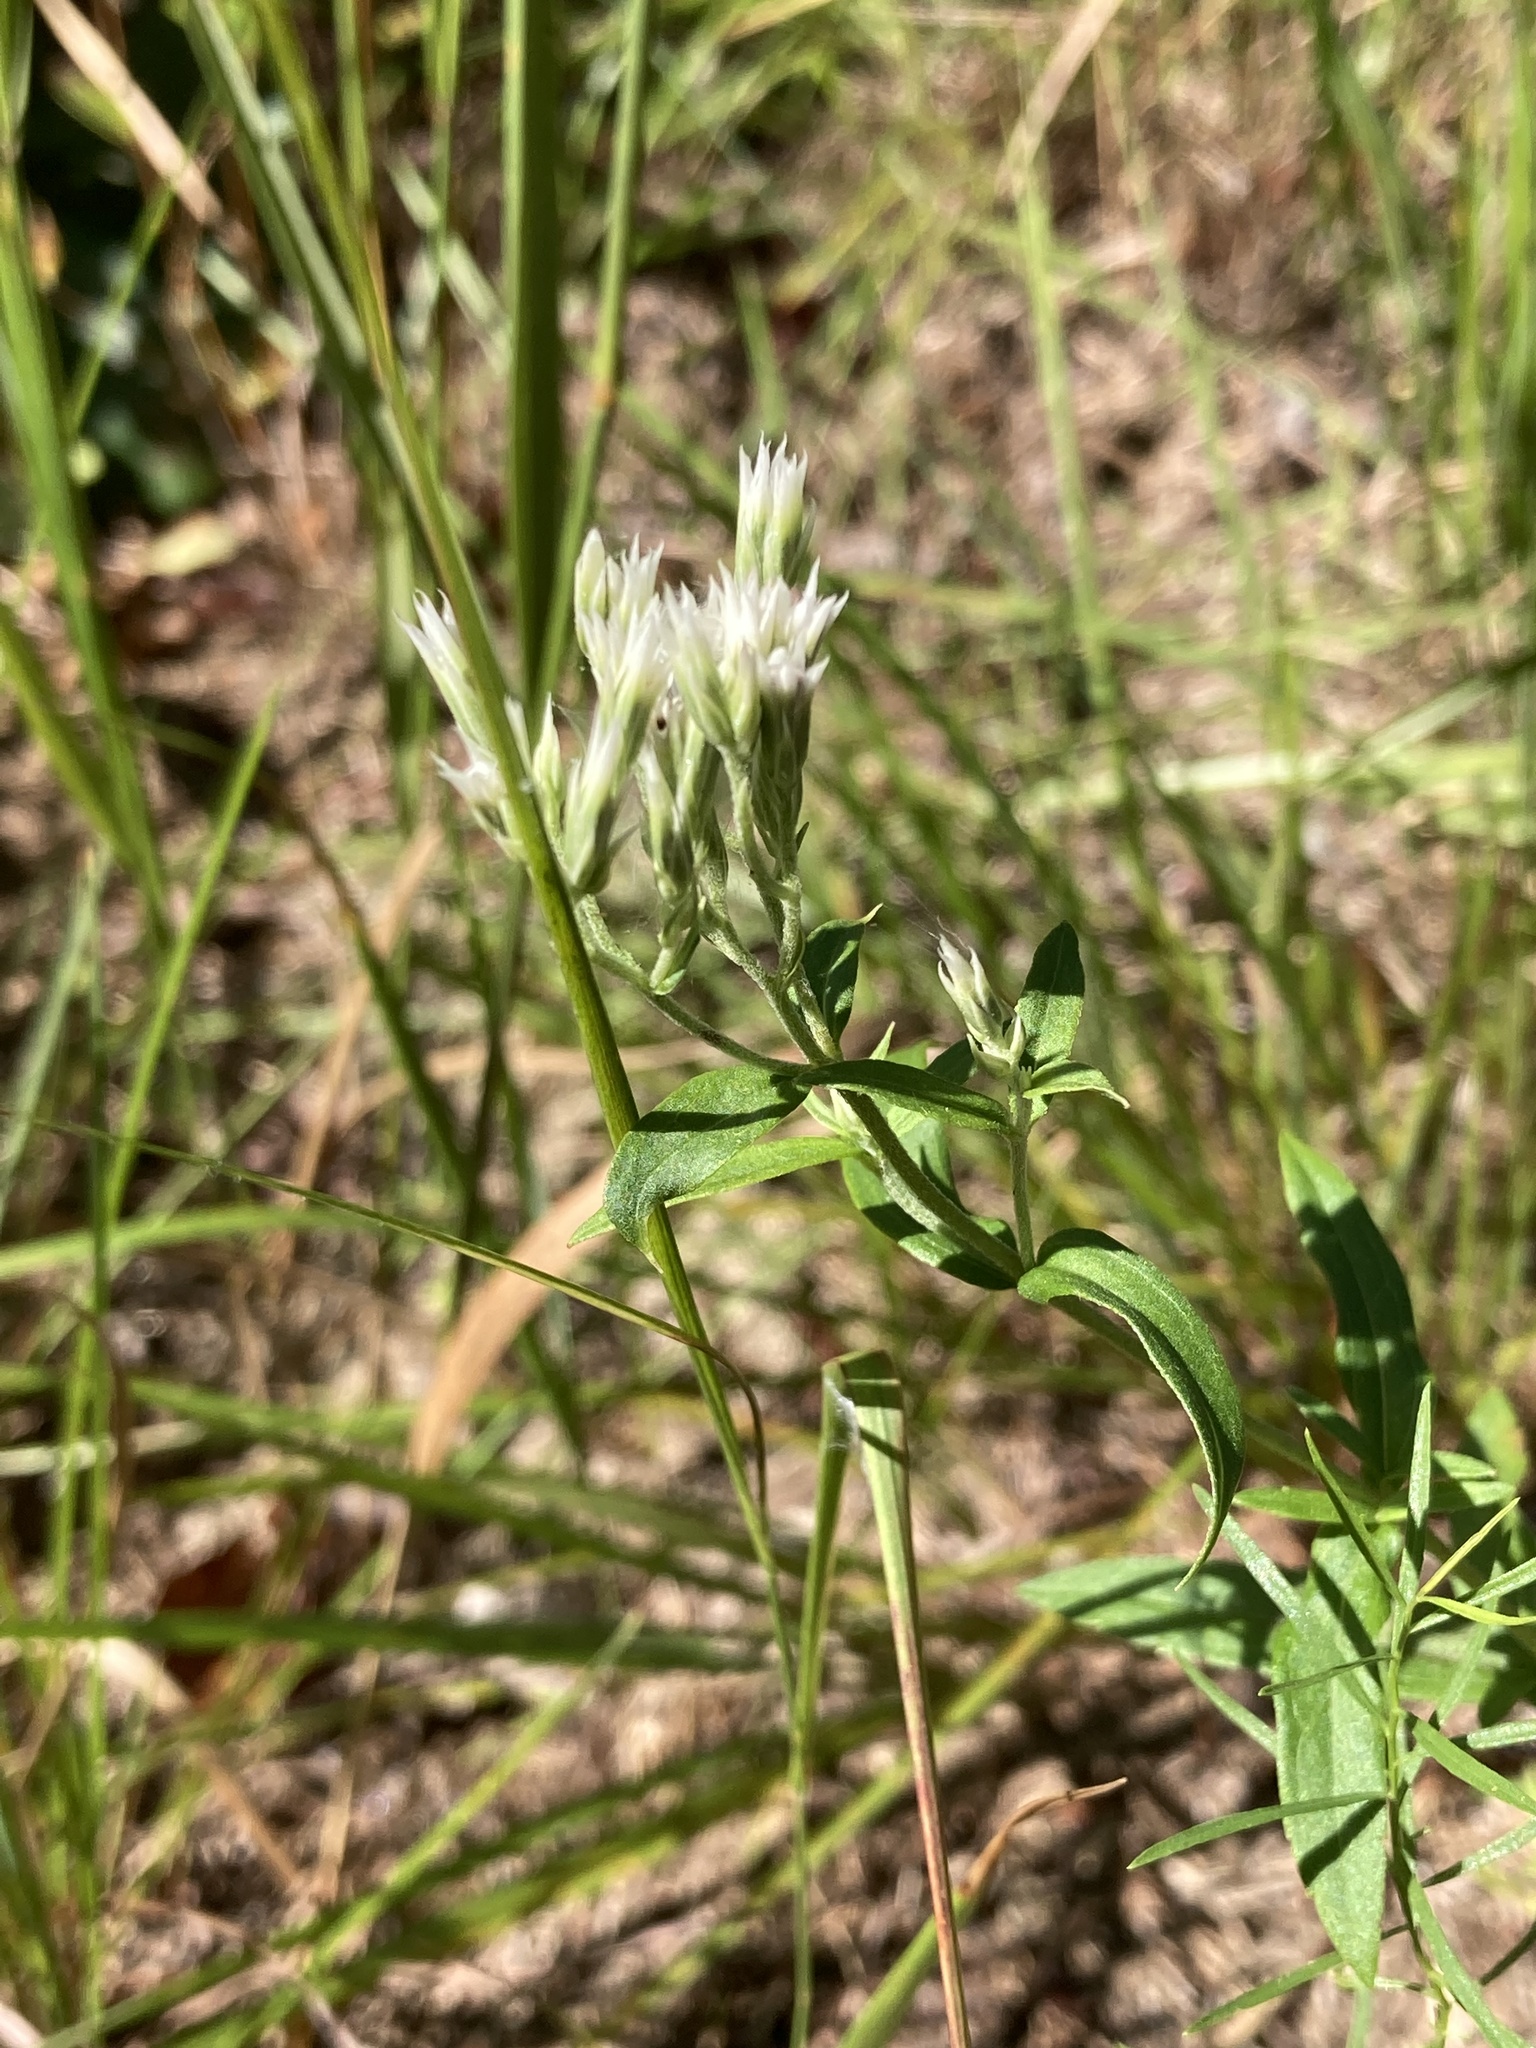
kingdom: Plantae
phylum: Tracheophyta
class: Magnoliopsida
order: Asterales
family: Asteraceae
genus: Eupatorium
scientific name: Eupatorium subvenosum
